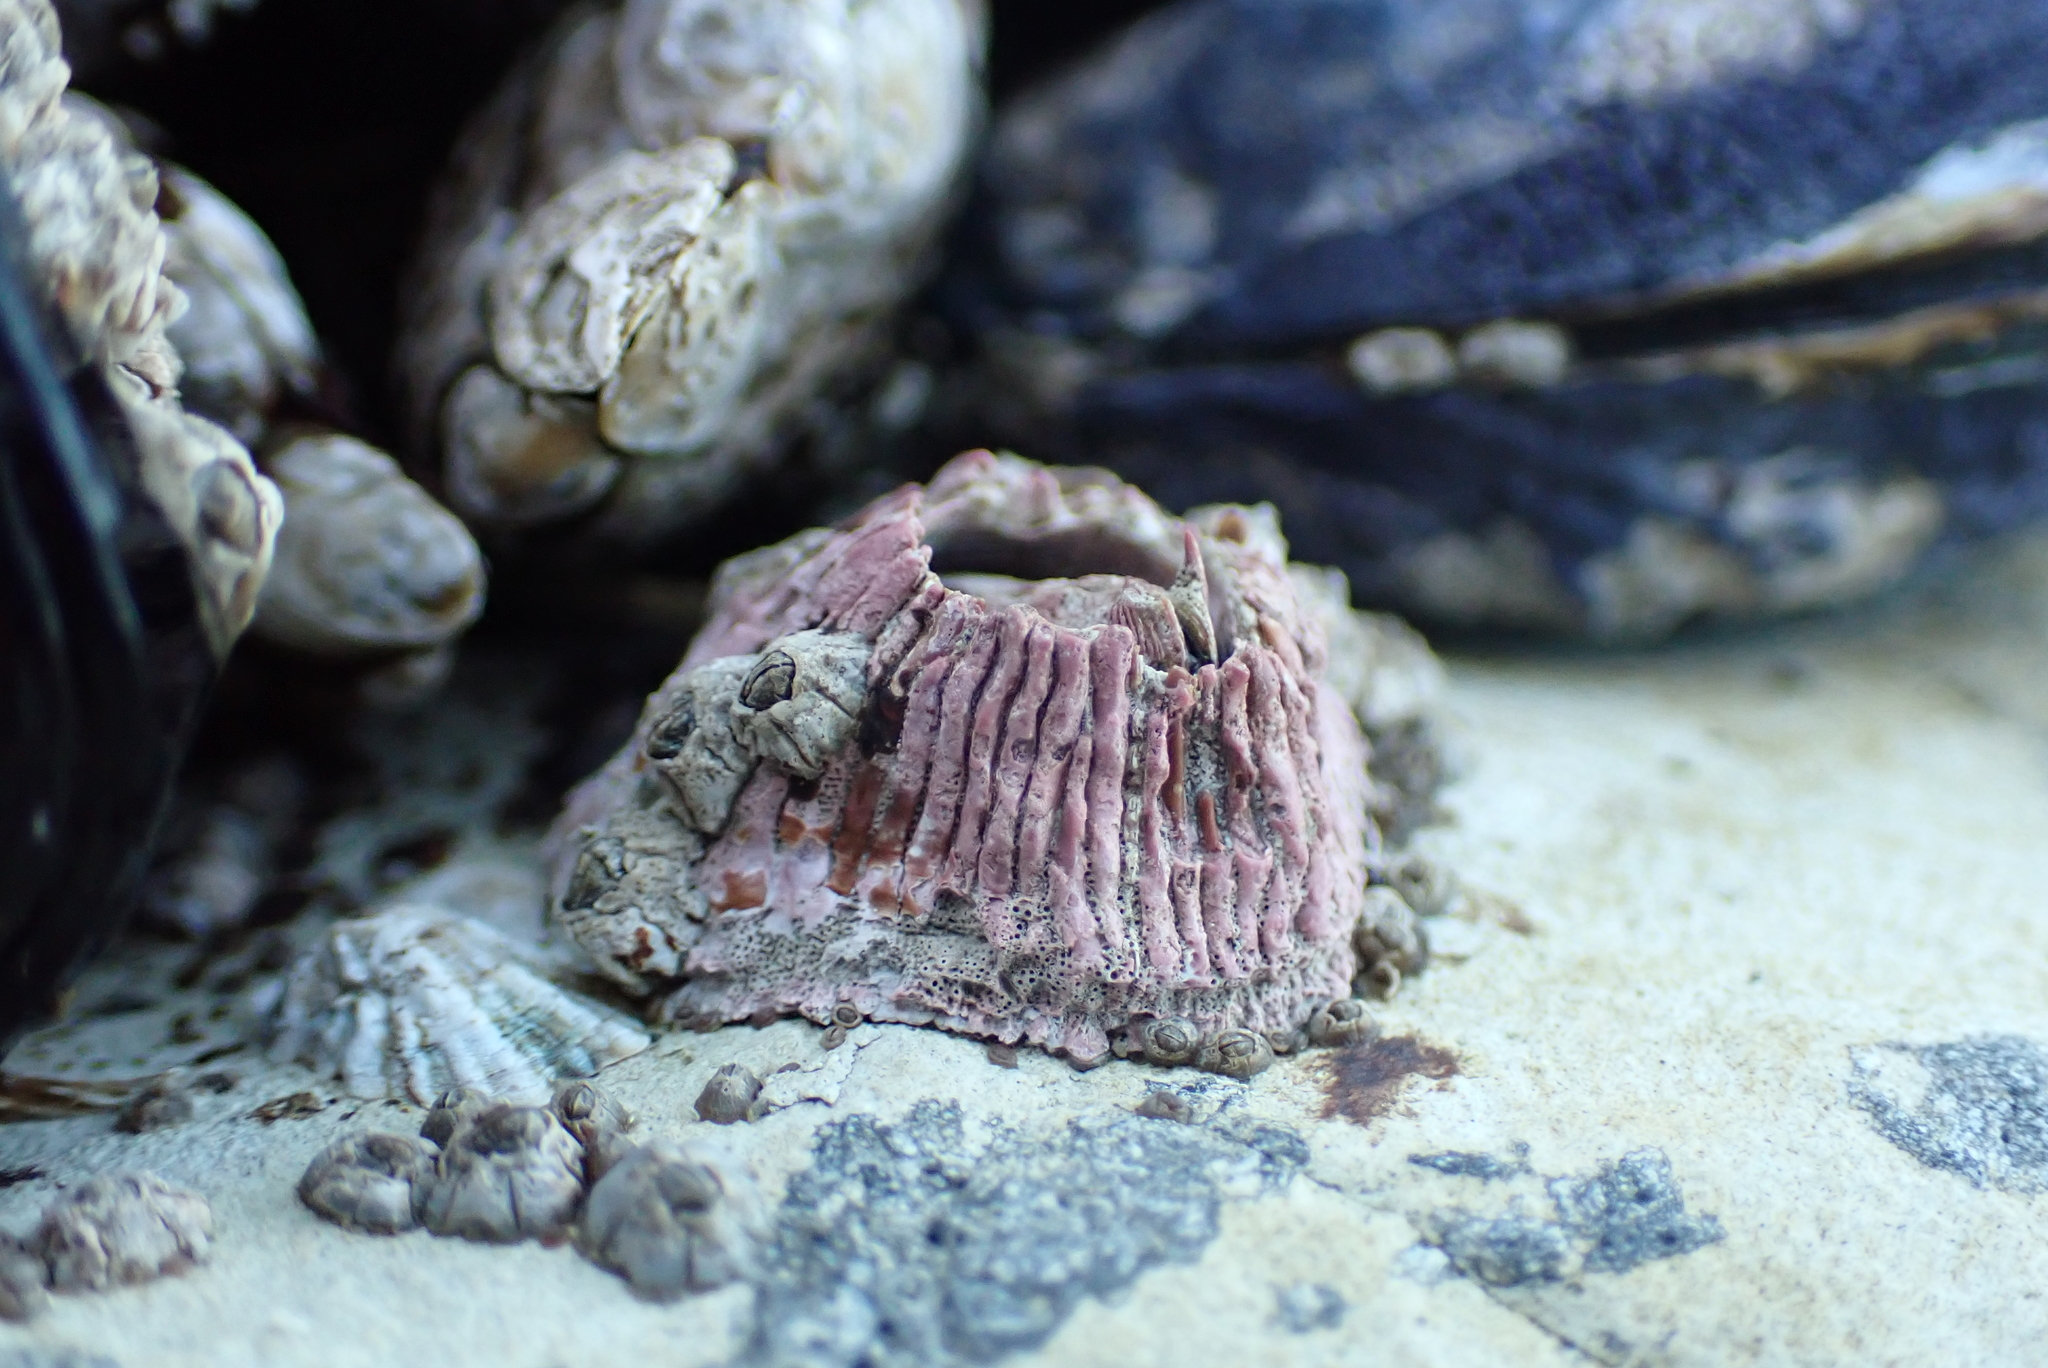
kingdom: Animalia
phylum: Arthropoda
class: Maxillopoda
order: Sessilia
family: Tetraclitidae
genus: Tetraclita
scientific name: Tetraclita rubescens
